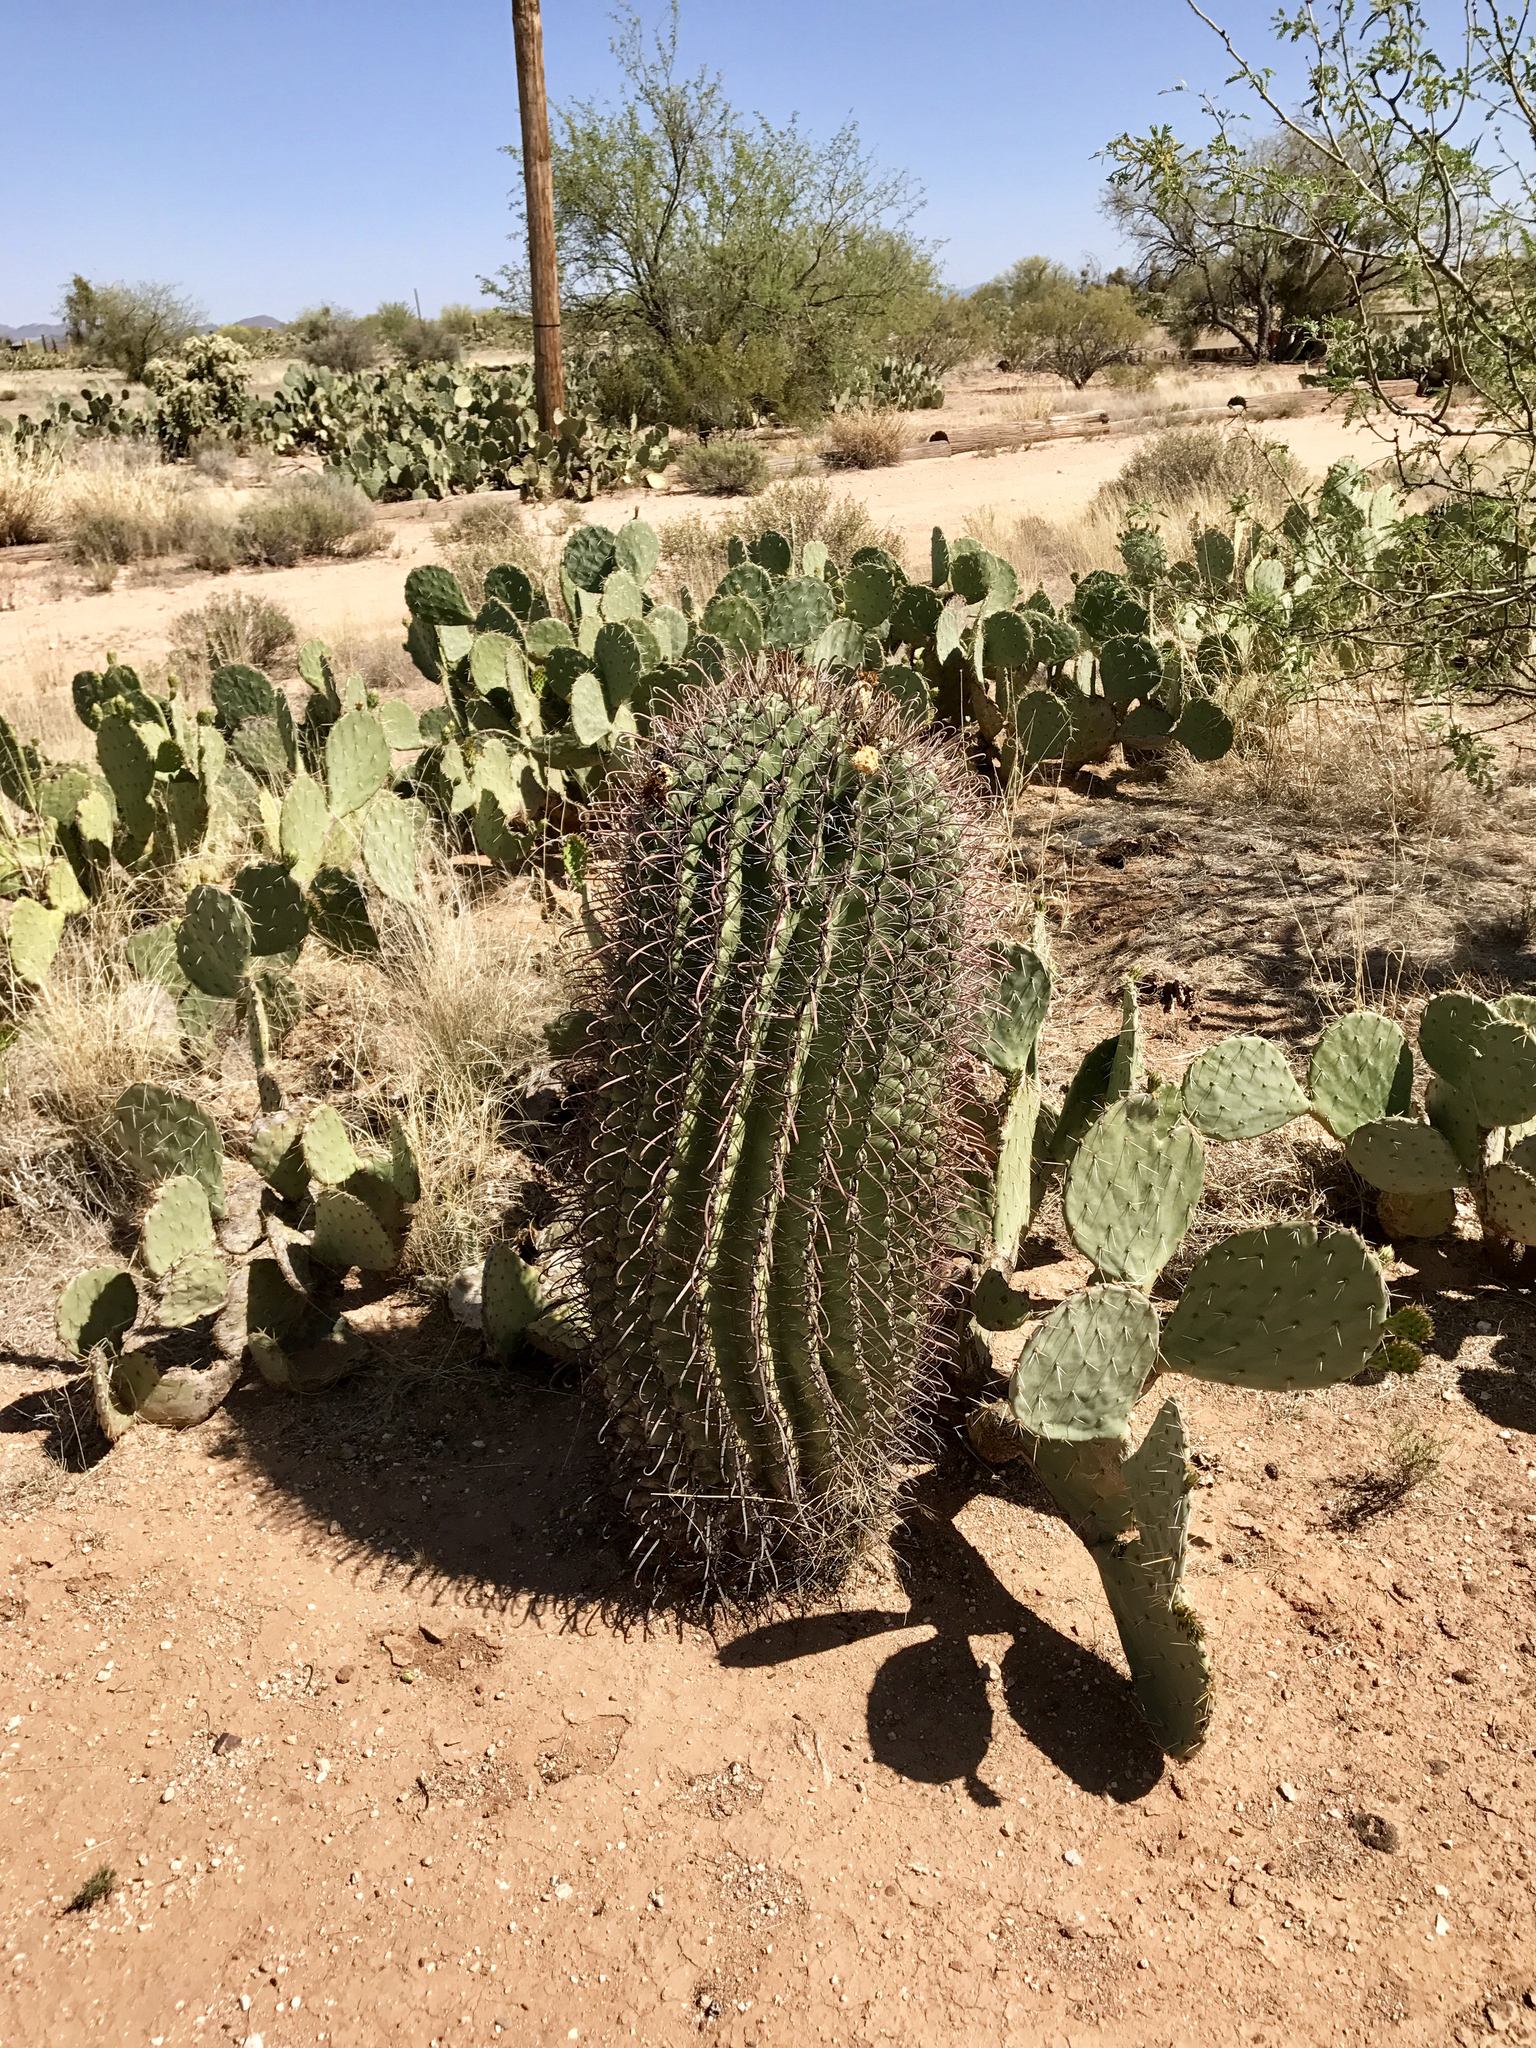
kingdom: Plantae
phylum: Tracheophyta
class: Magnoliopsida
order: Caryophyllales
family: Cactaceae
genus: Ferocactus
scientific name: Ferocactus wislizeni
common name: Candy barrel cactus
